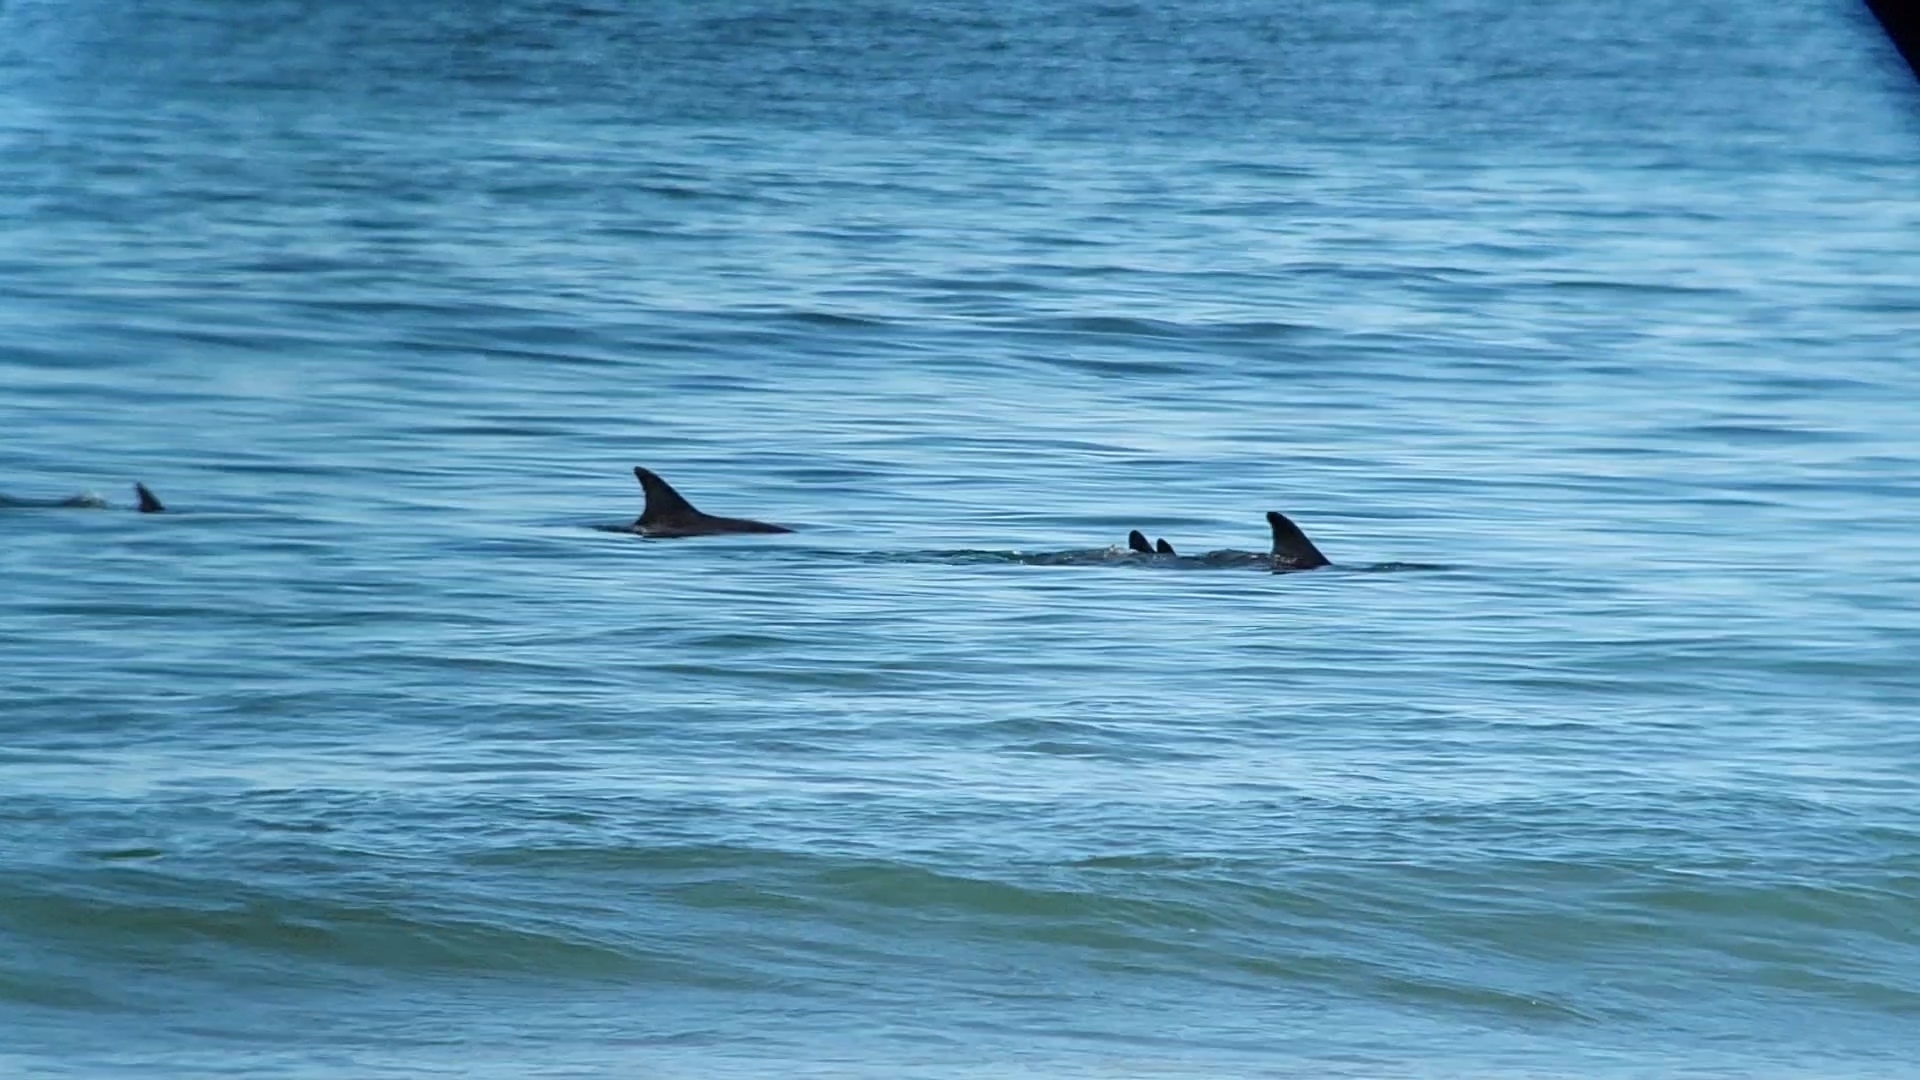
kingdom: Animalia
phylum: Chordata
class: Mammalia
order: Cetacea
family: Delphinidae
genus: Tursiops
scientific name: Tursiops truncatus
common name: Bottlenose dolphin
